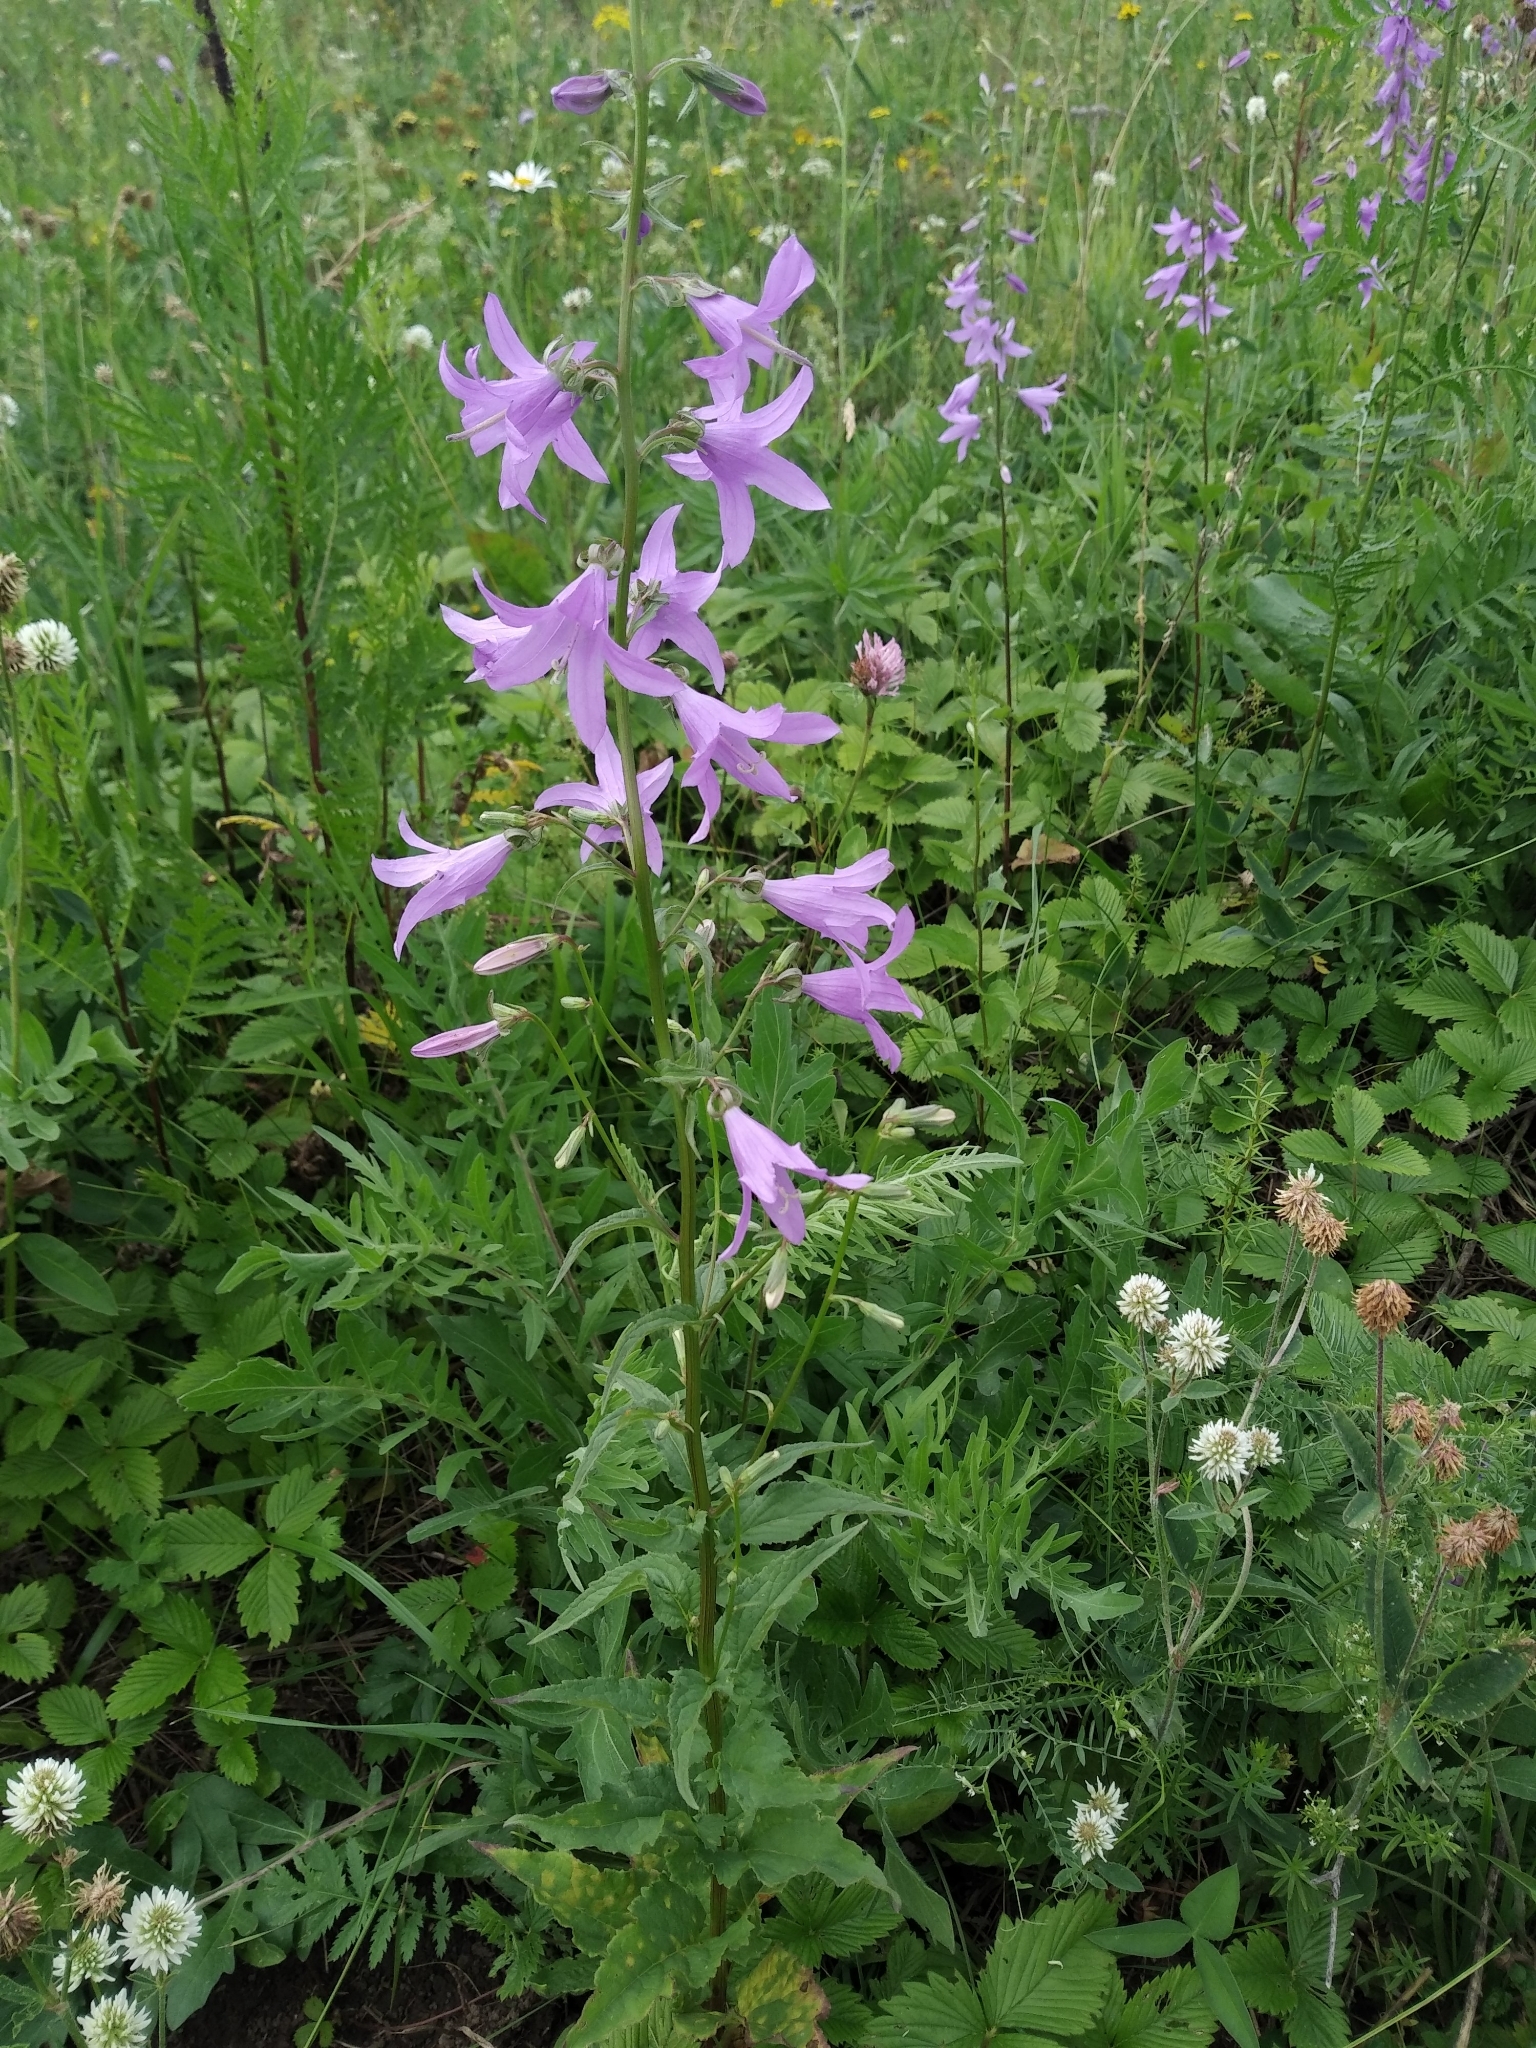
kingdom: Plantae
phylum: Tracheophyta
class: Magnoliopsida
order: Asterales
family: Campanulaceae
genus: Campanula
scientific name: Campanula rapunculoides
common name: Creeping bellflower
